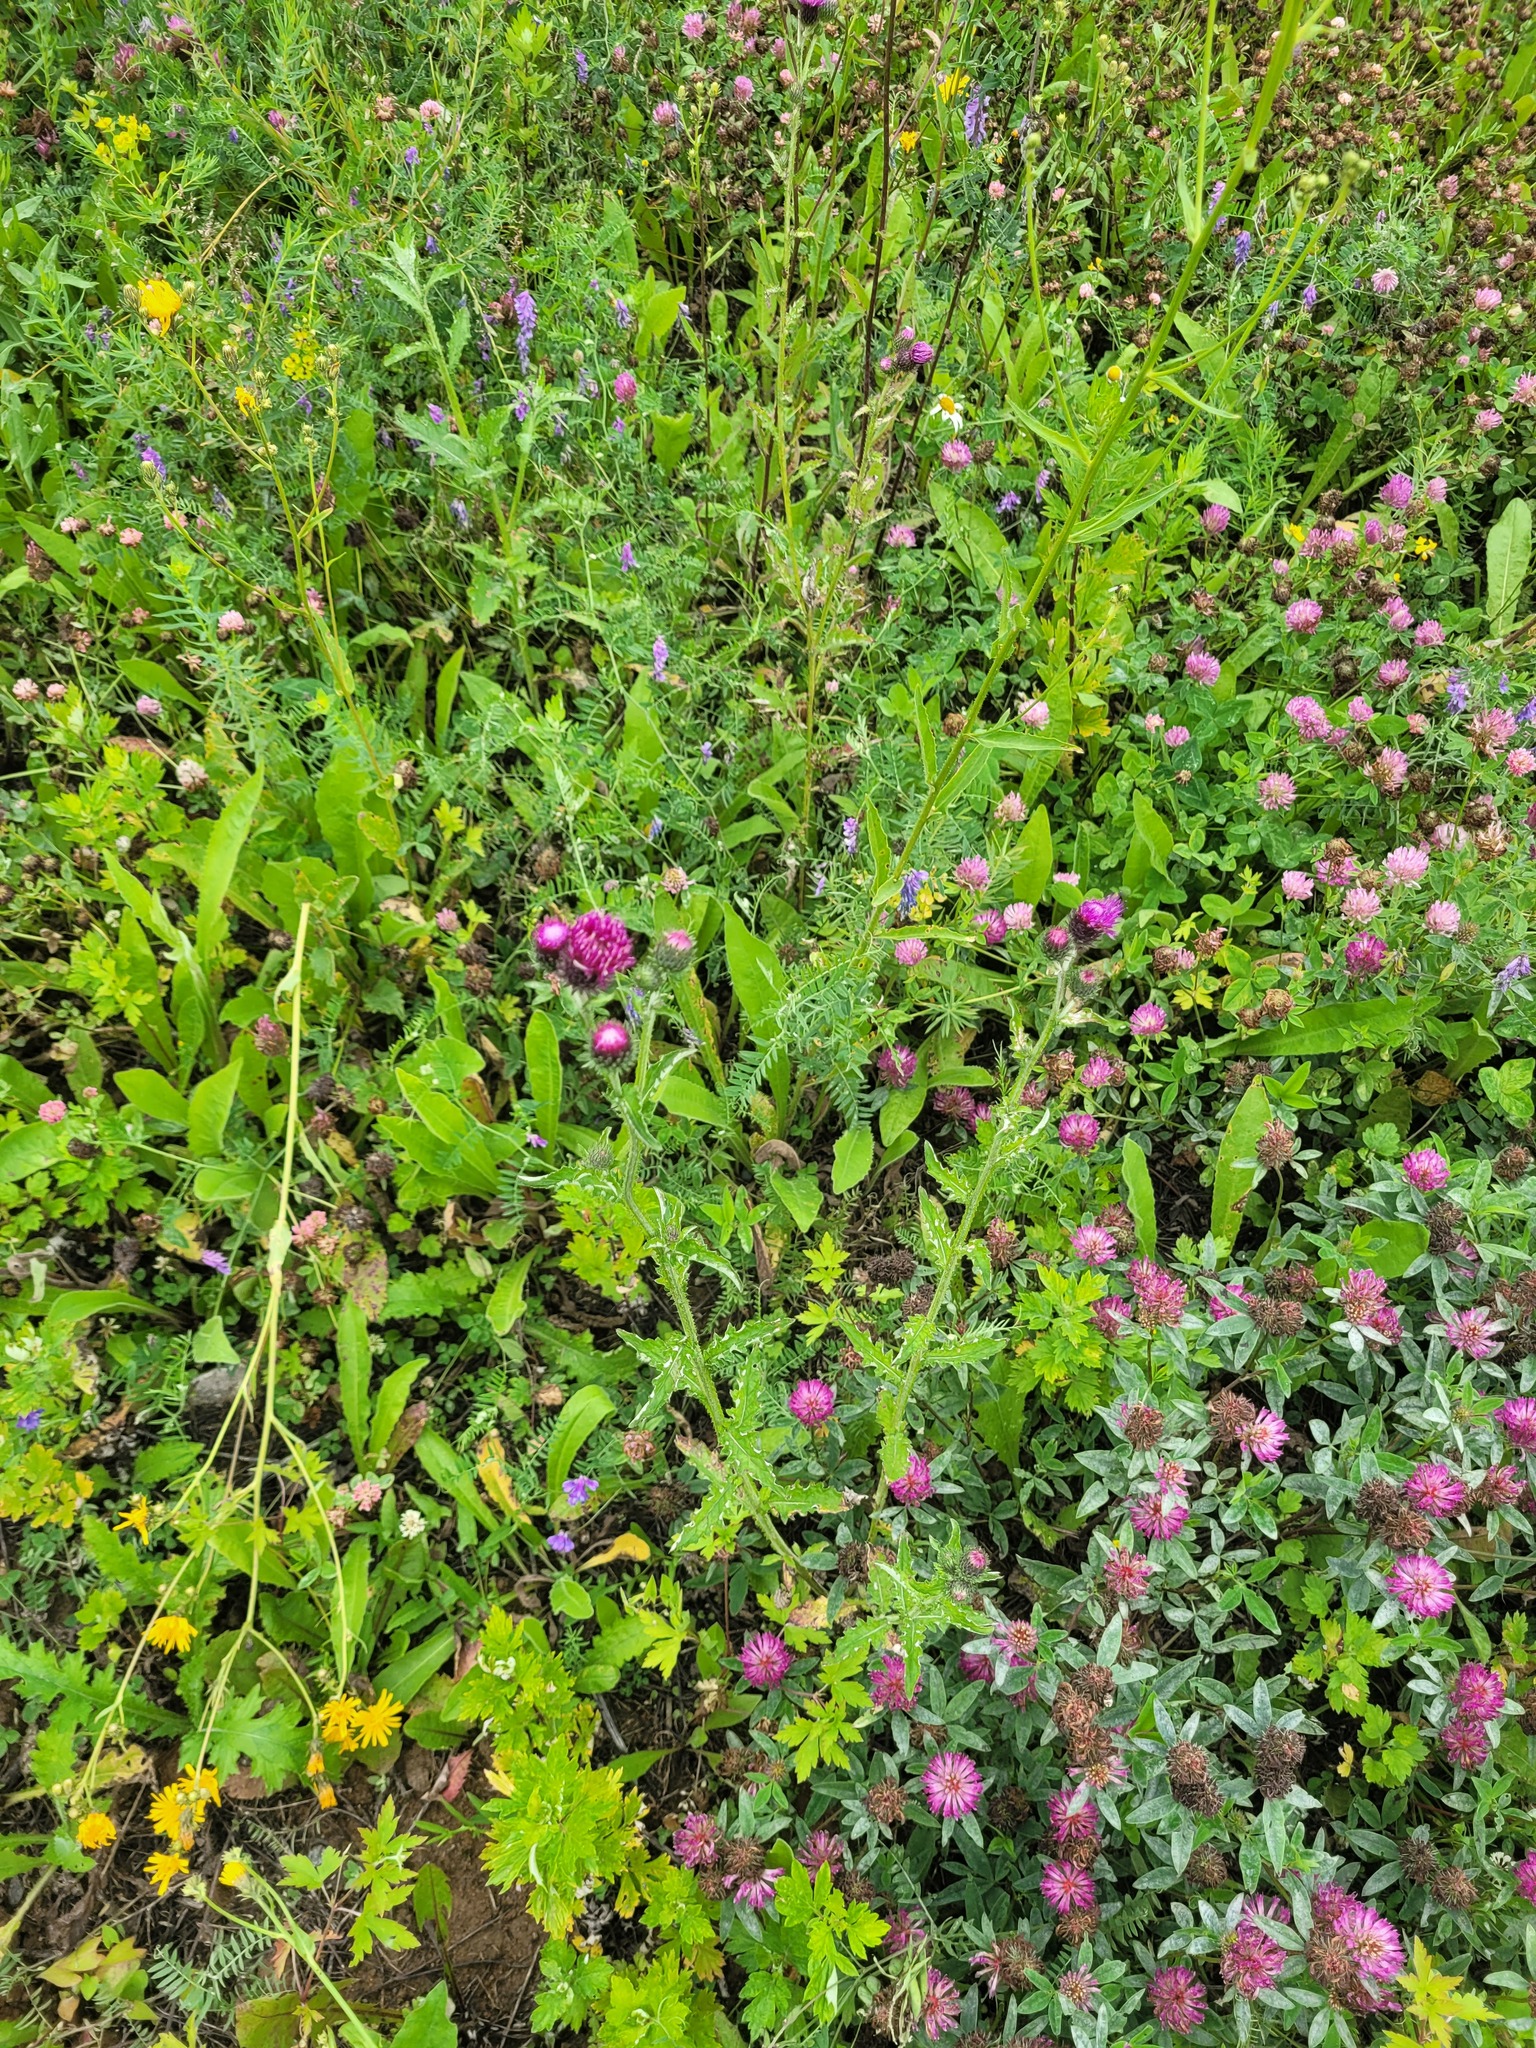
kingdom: Plantae
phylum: Tracheophyta
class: Magnoliopsida
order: Asterales
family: Asteraceae
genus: Carduus
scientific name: Carduus crispus
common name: Welted thistle
